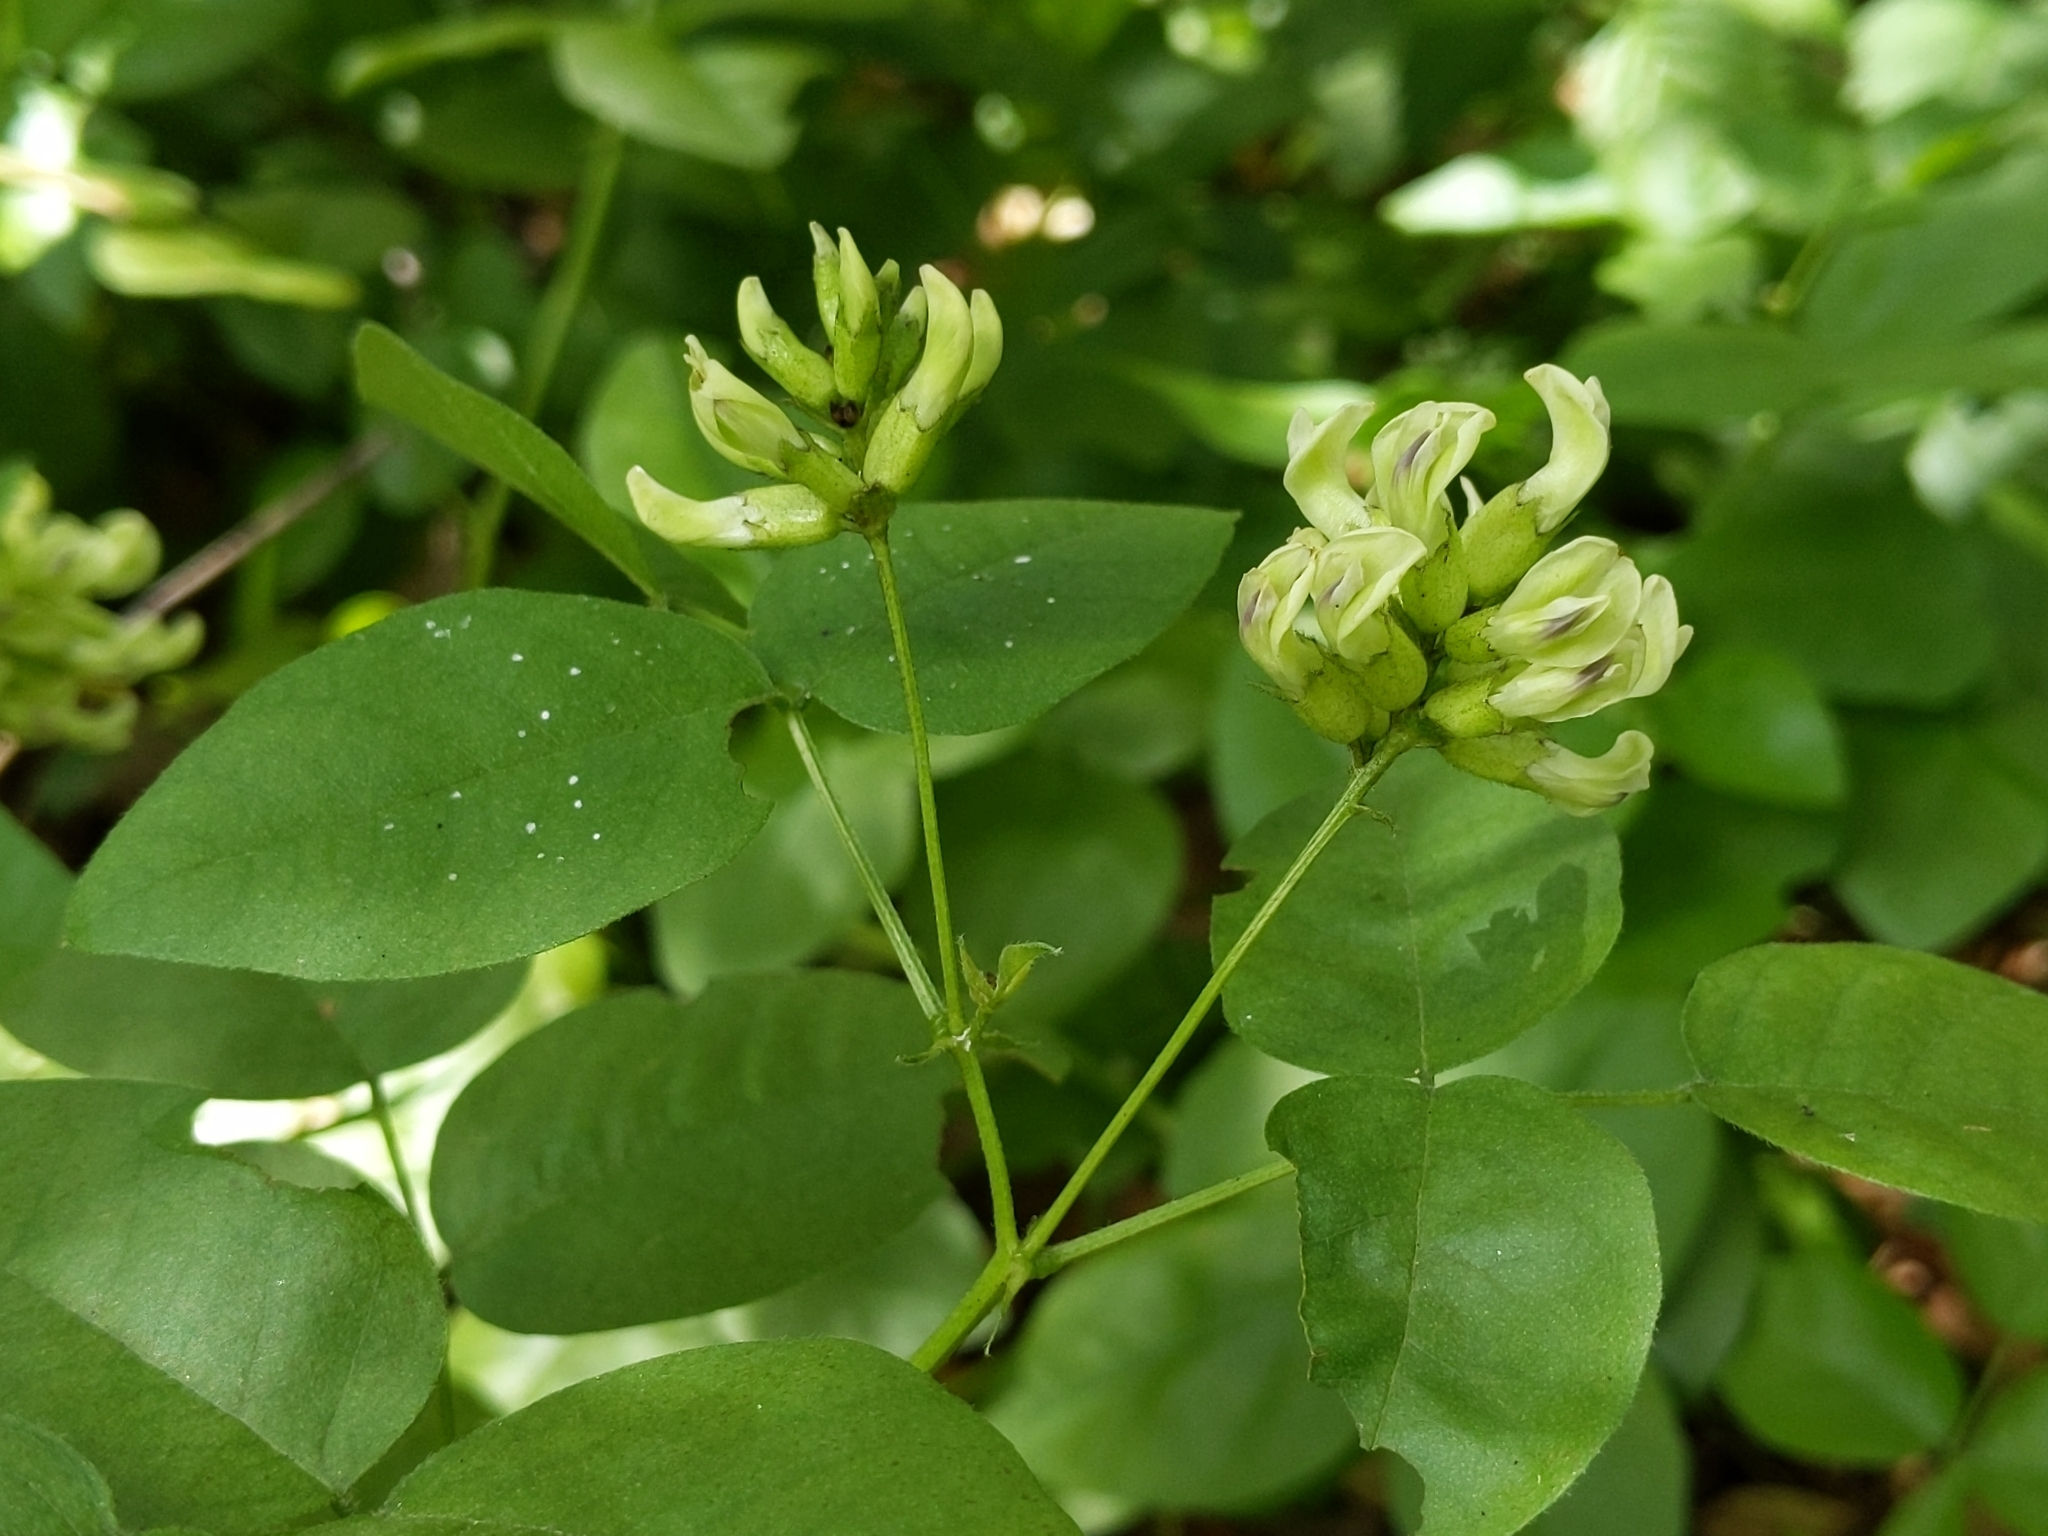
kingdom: Plantae
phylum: Tracheophyta
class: Magnoliopsida
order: Fabales
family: Fabaceae
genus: Rupertia
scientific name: Rupertia physodes
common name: California-tea
